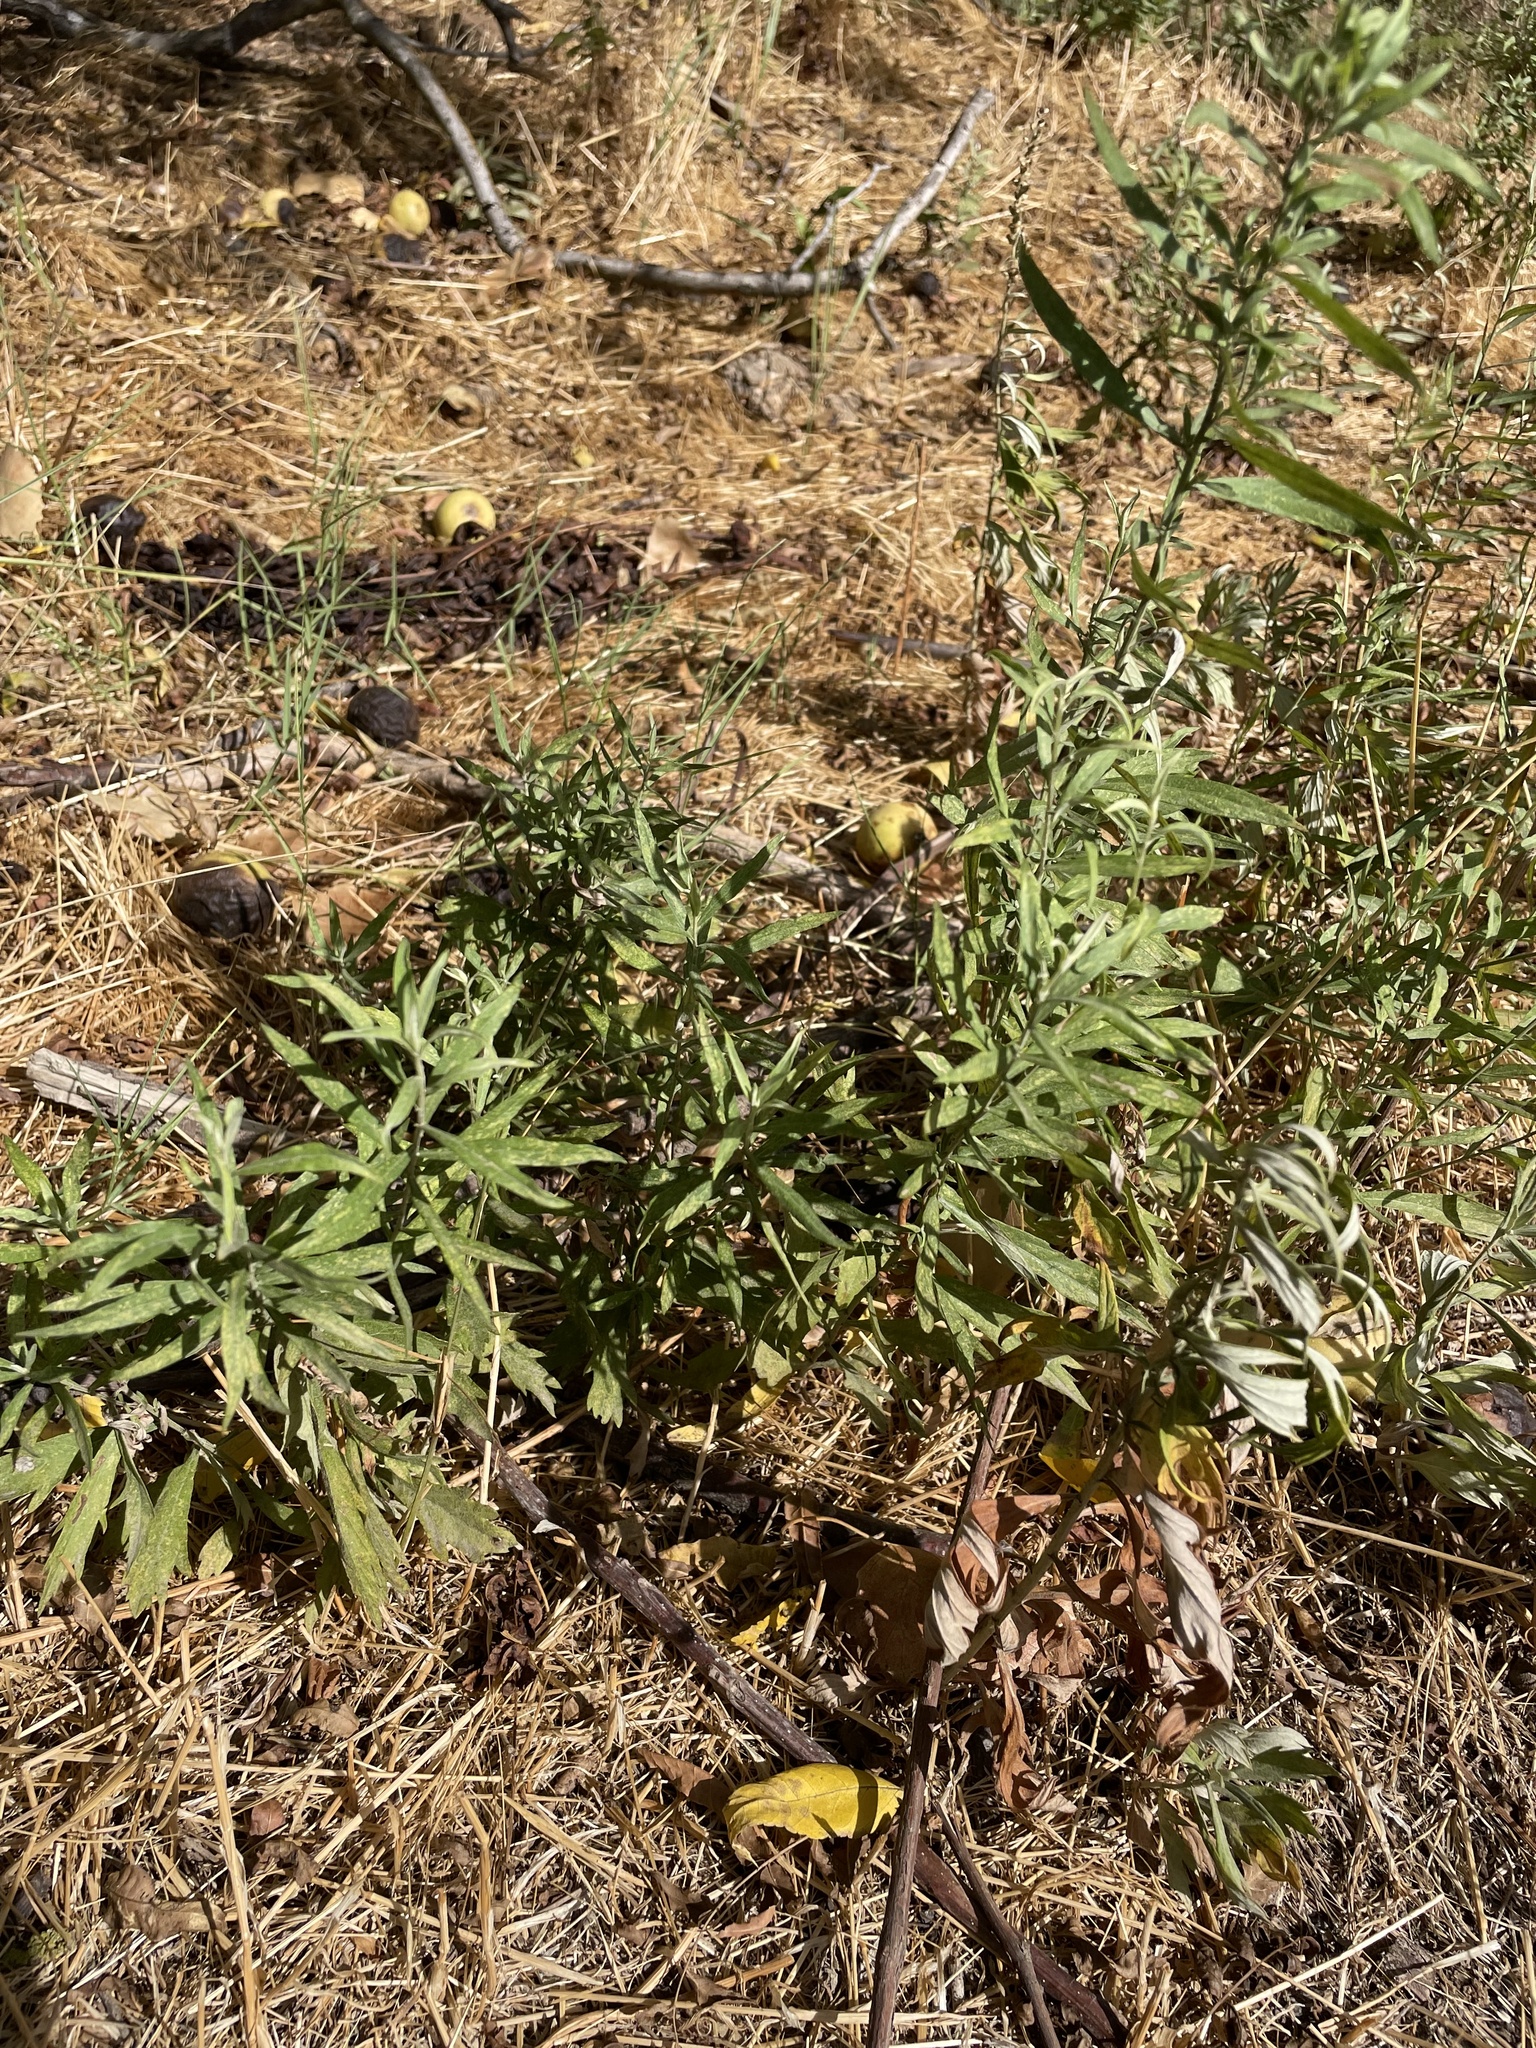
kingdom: Plantae
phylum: Tracheophyta
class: Magnoliopsida
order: Asterales
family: Asteraceae
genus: Artemisia
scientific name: Artemisia douglasiana
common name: Northwest mugwort
